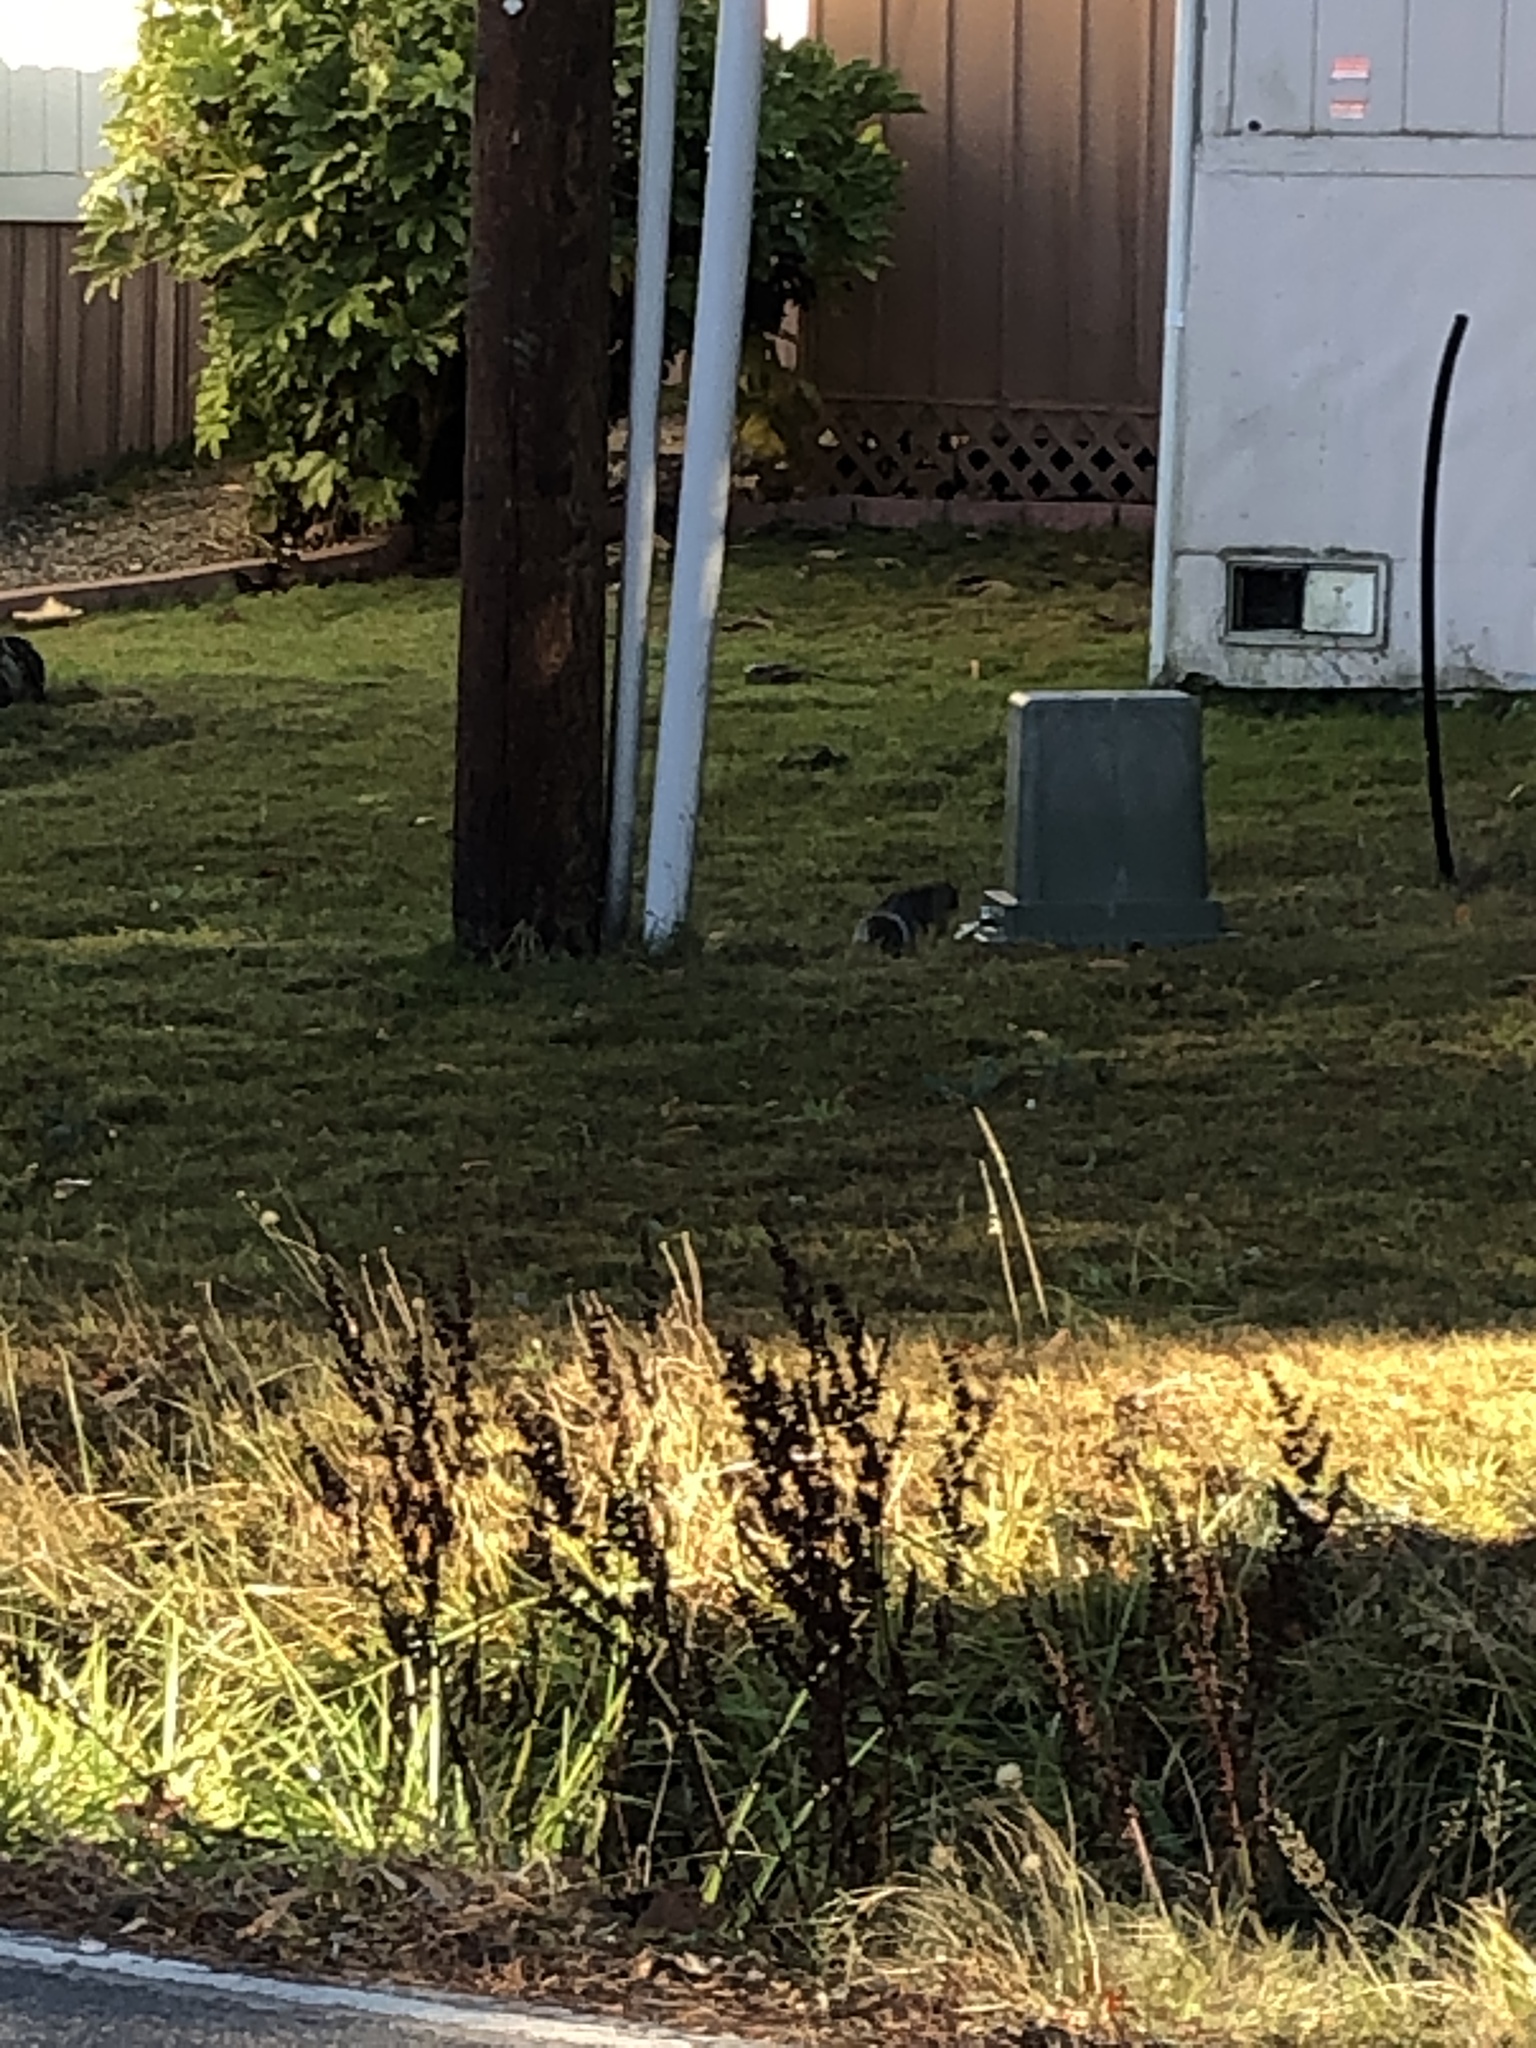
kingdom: Animalia
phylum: Chordata
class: Mammalia
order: Rodentia
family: Sciuridae
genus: Sciurus
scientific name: Sciurus carolinensis
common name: Eastern gray squirrel
